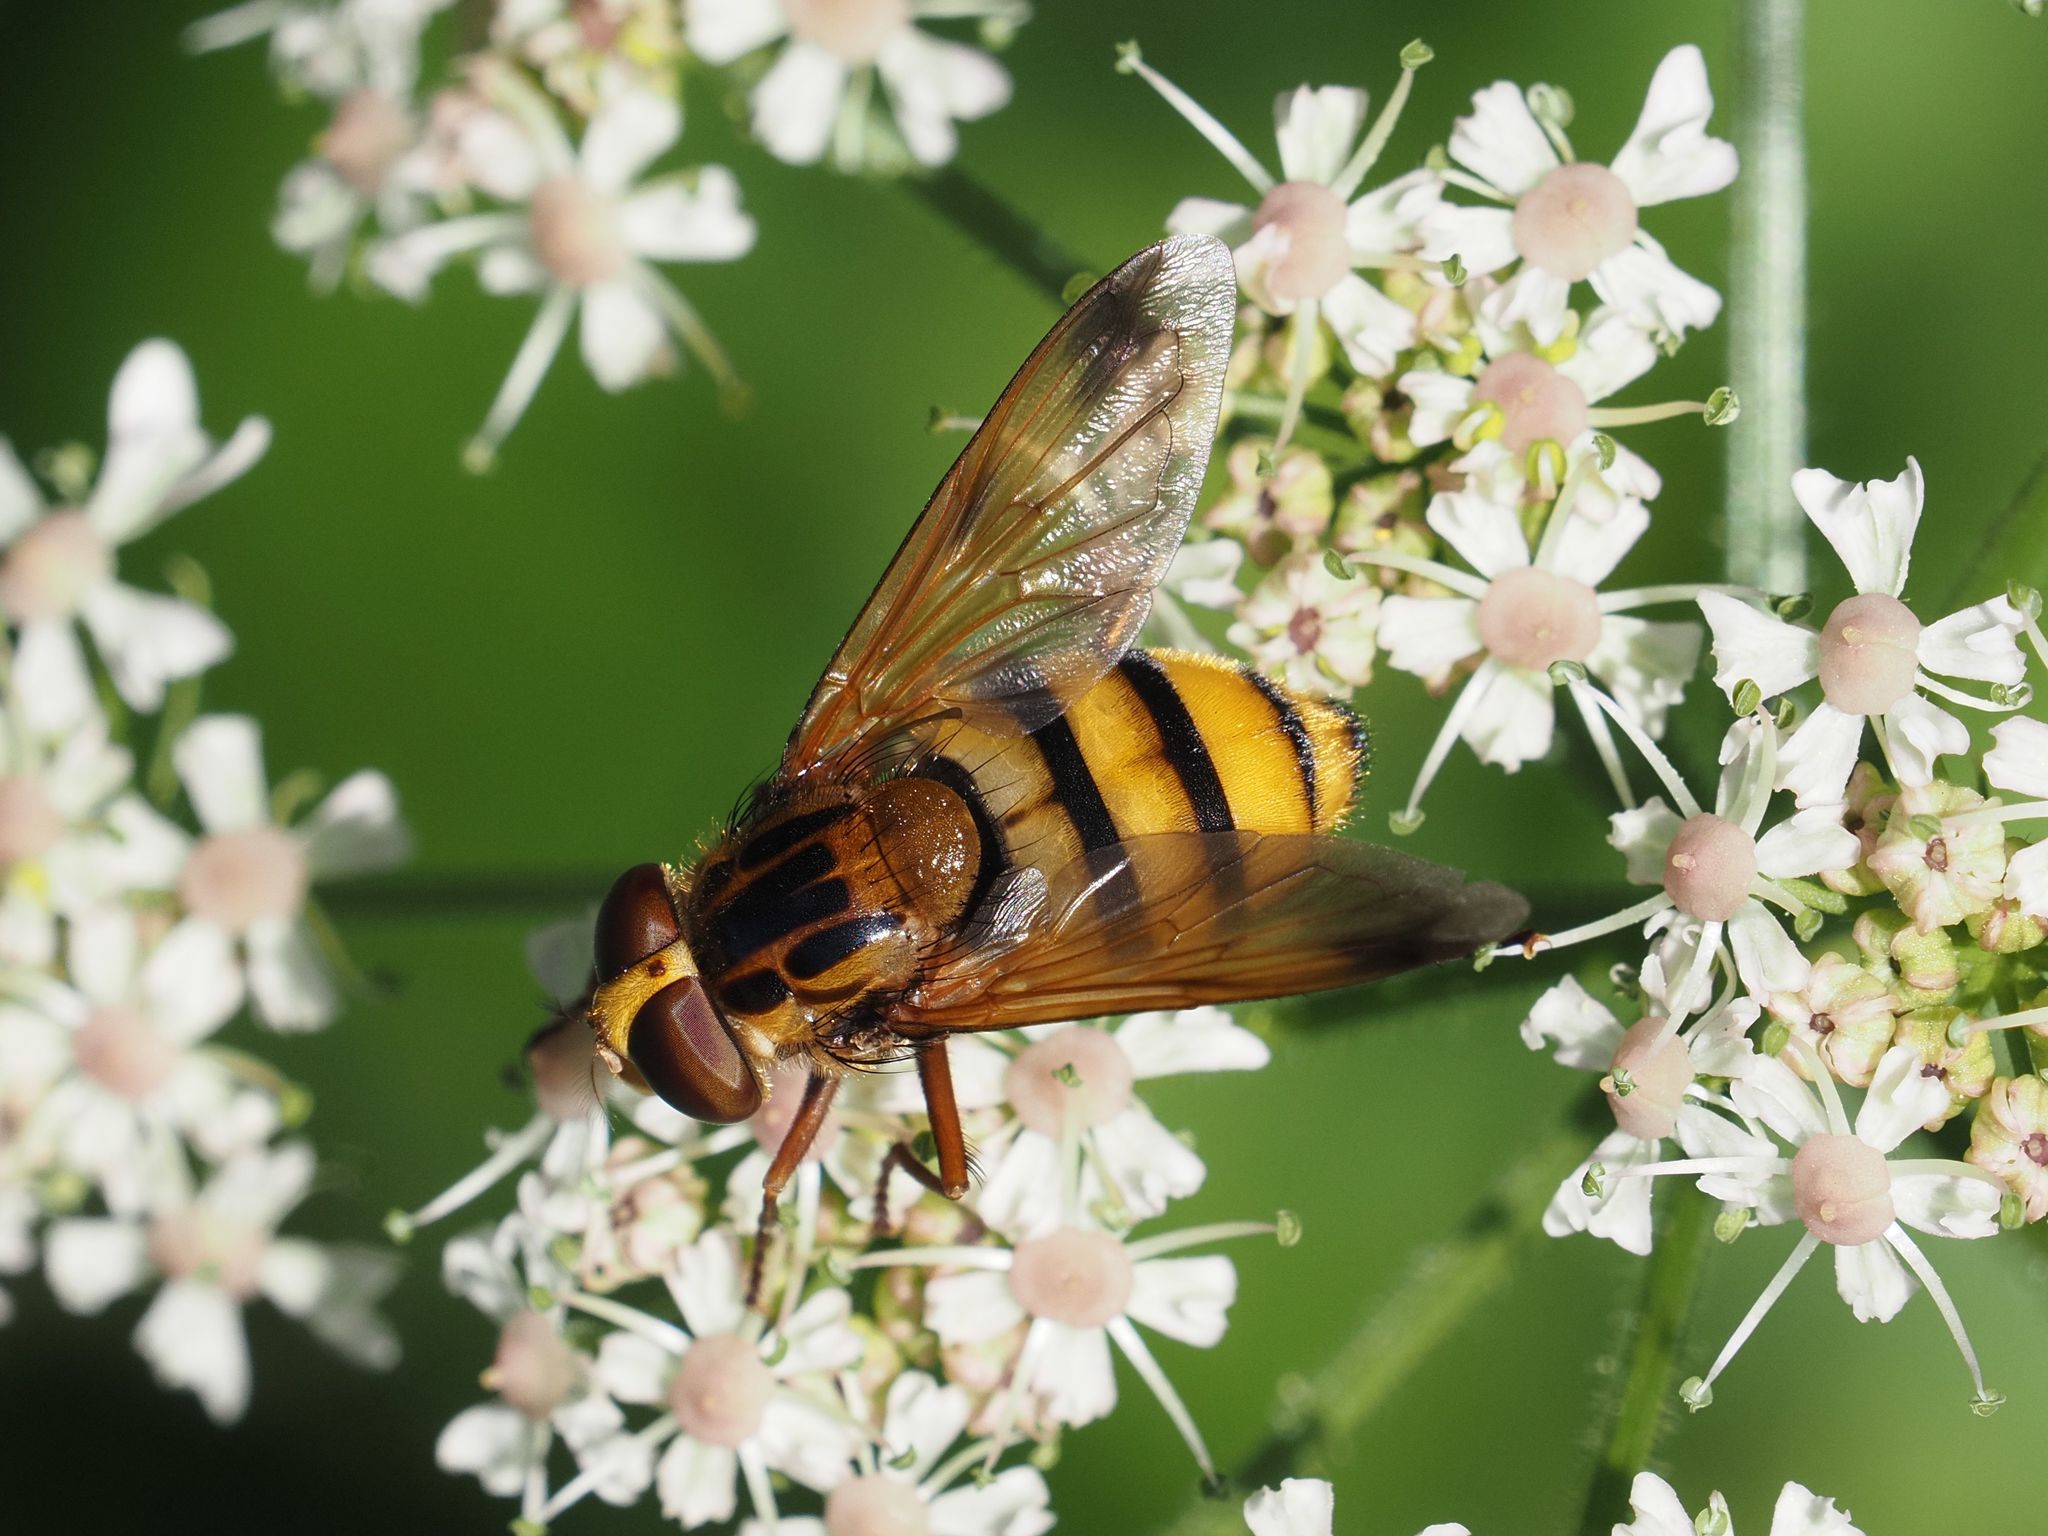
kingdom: Animalia
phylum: Arthropoda
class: Insecta
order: Diptera
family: Syrphidae
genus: Volucella
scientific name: Volucella inanis
